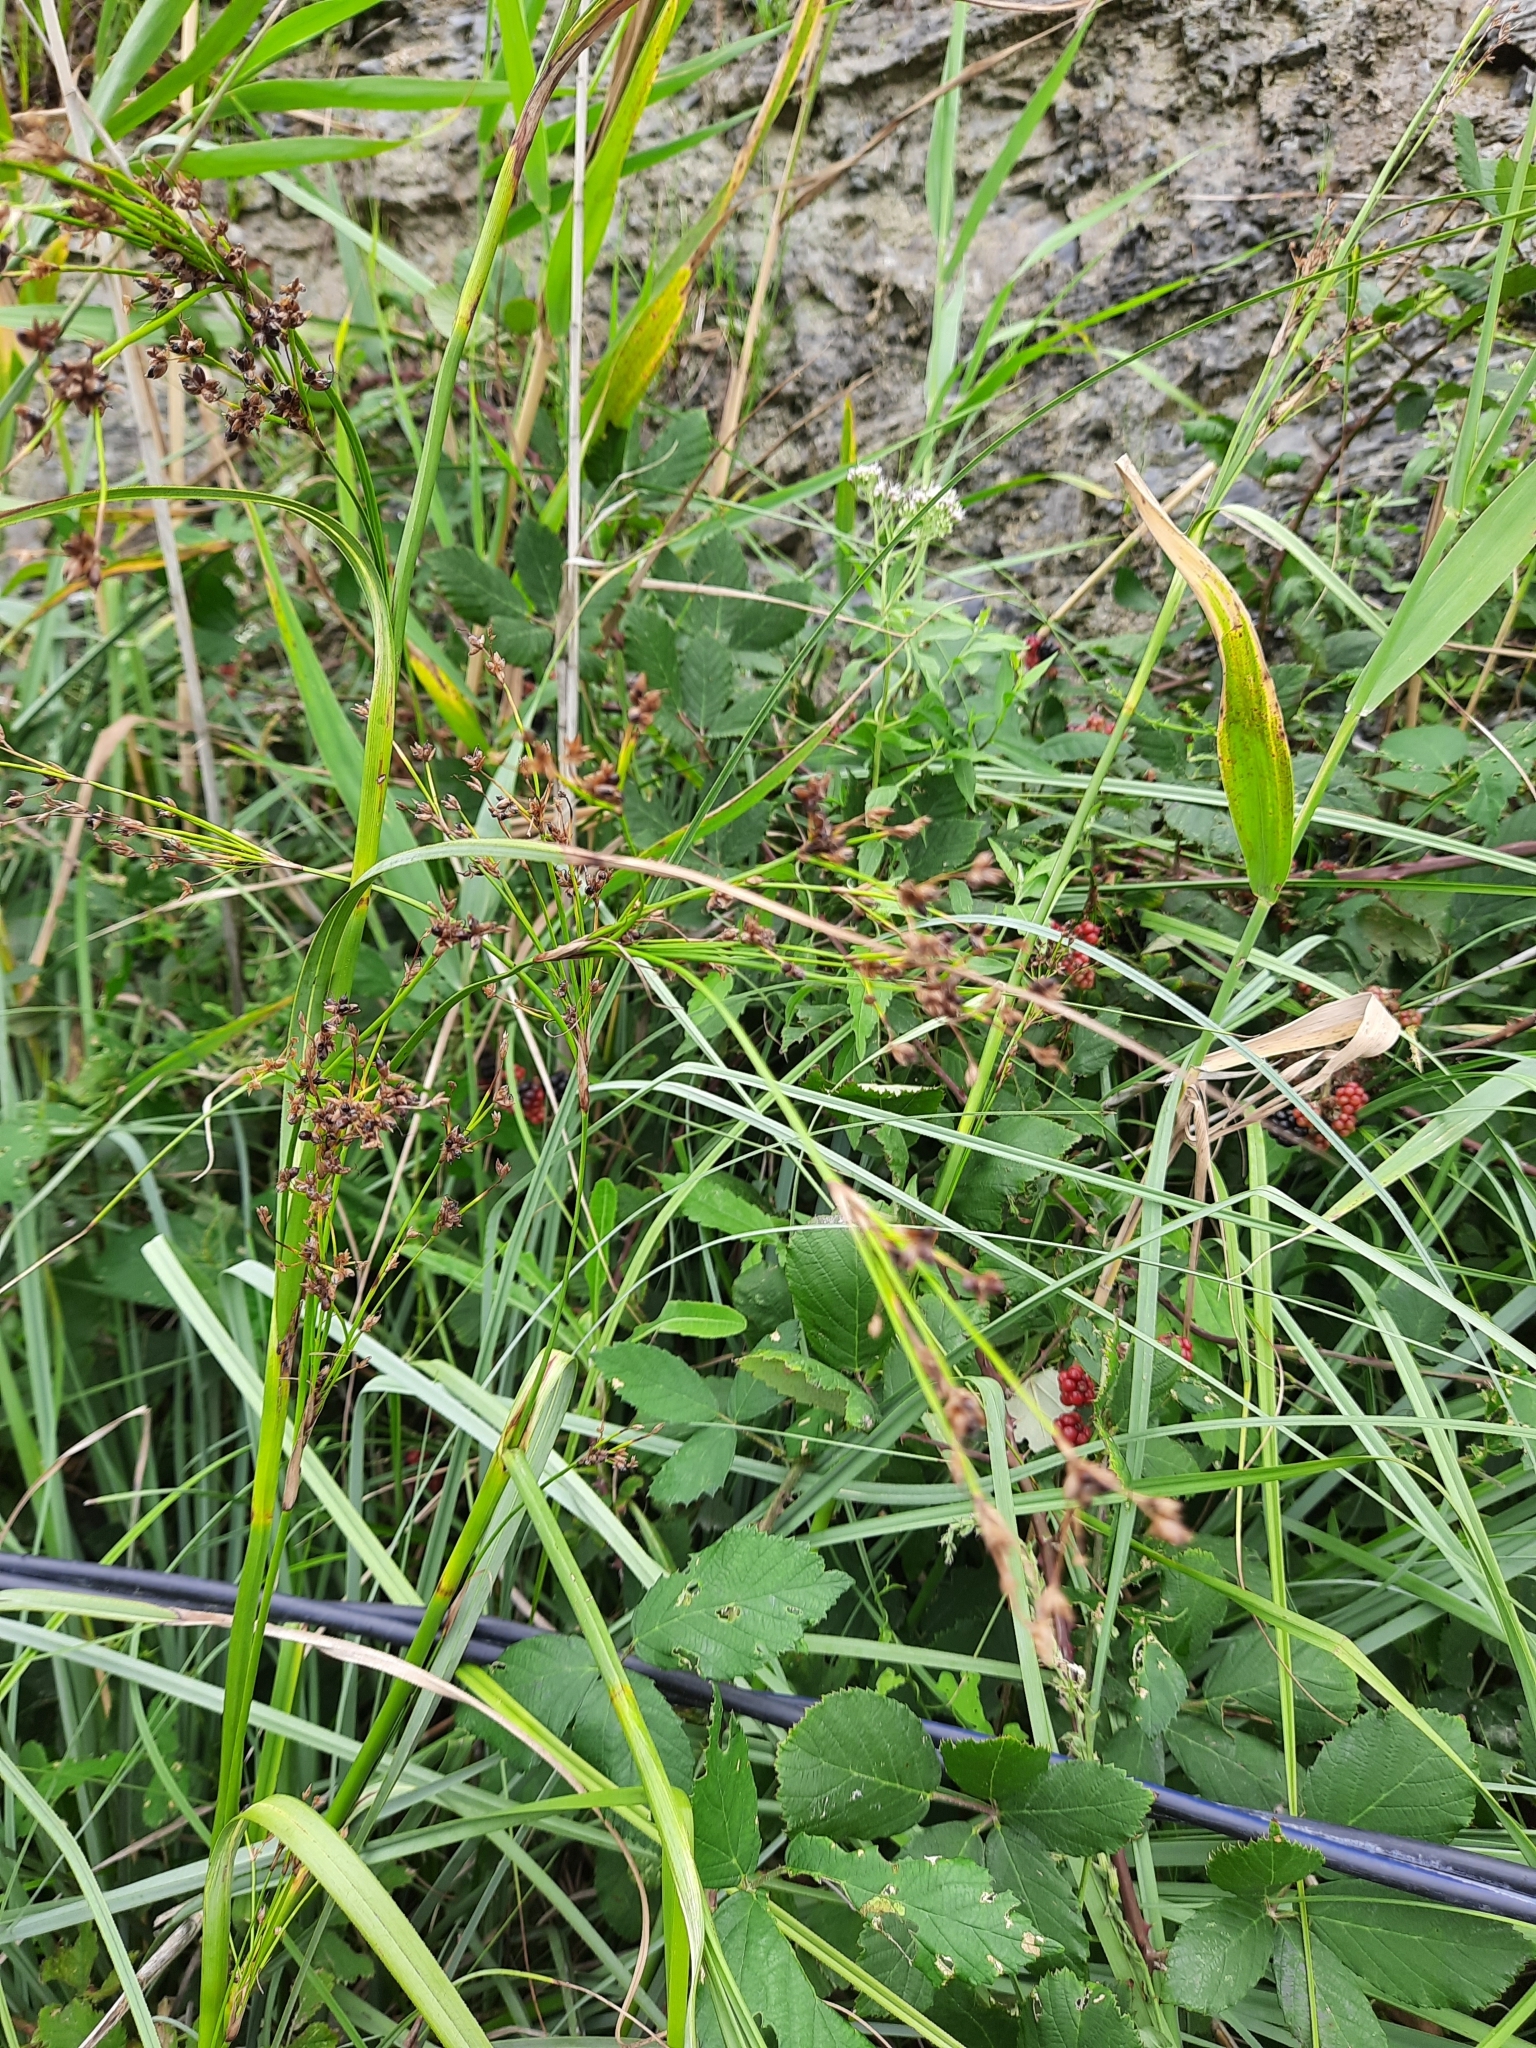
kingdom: Plantae
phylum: Tracheophyta
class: Liliopsida
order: Poales
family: Juncaceae
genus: Juncus
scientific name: Juncus articulatus
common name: Jointed rush
